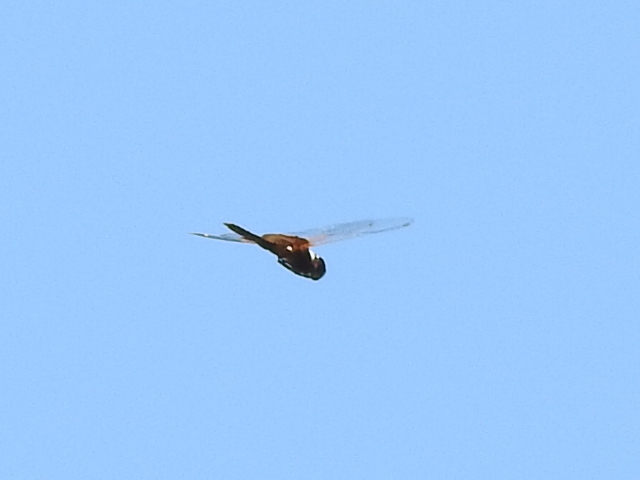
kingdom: Animalia
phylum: Arthropoda
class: Insecta
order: Odonata
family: Libellulidae
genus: Tramea
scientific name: Tramea onusta
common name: Red saddlebags
